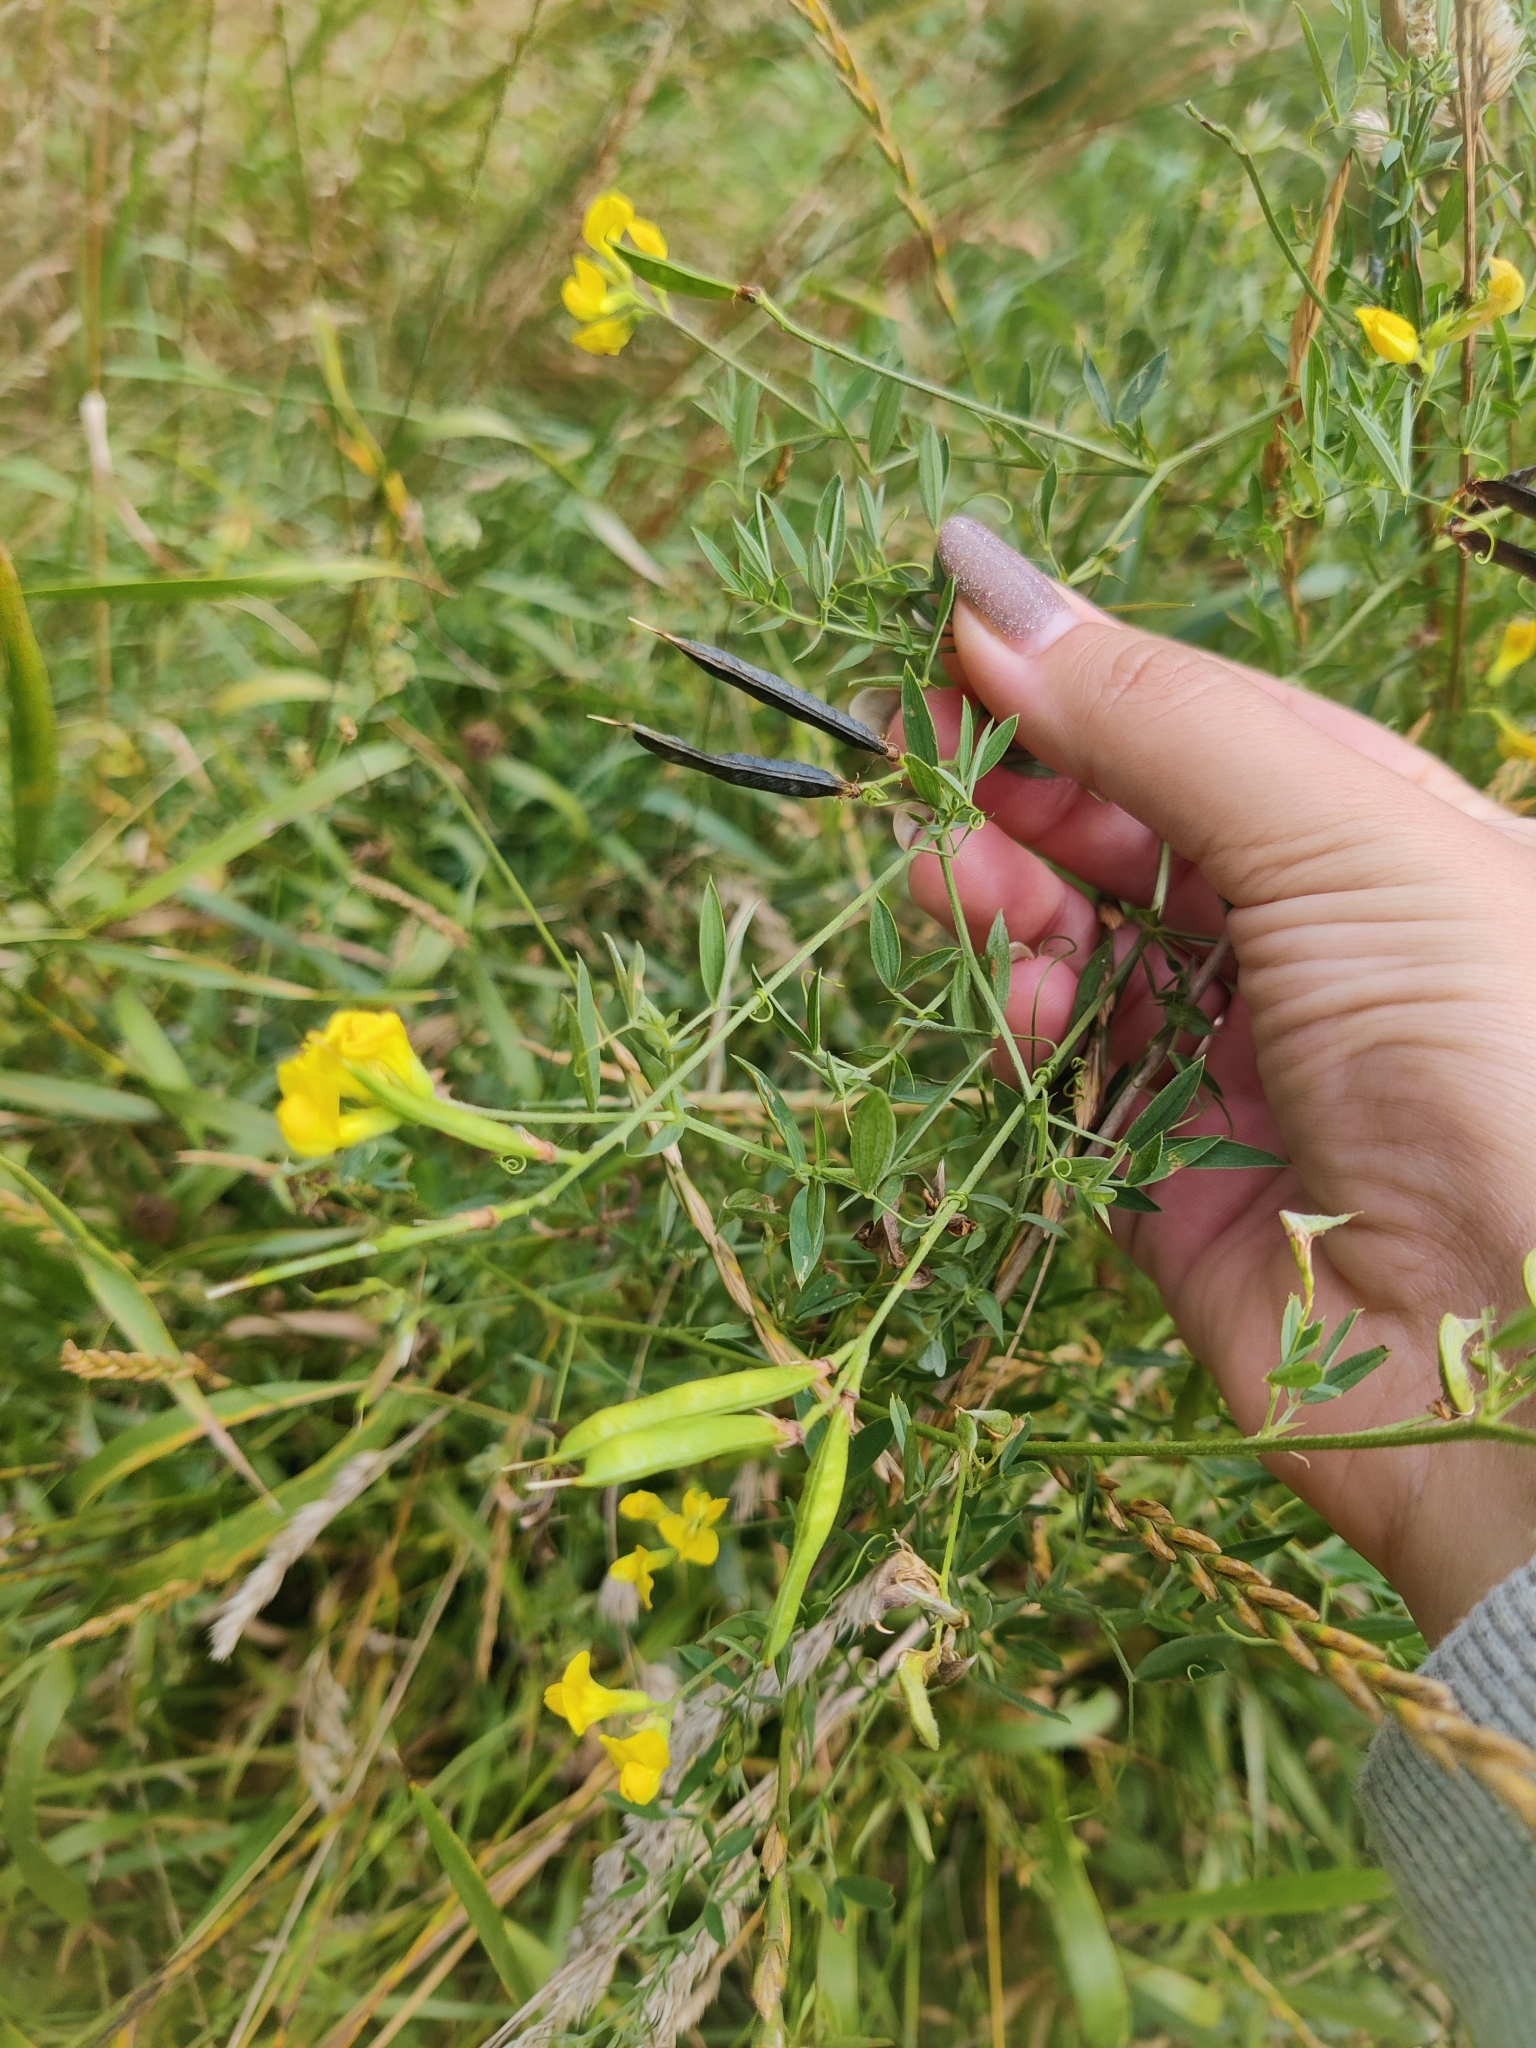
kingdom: Plantae
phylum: Tracheophyta
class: Magnoliopsida
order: Fabales
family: Fabaceae
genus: Lathyrus
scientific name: Lathyrus pratensis
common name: Meadow vetchling
